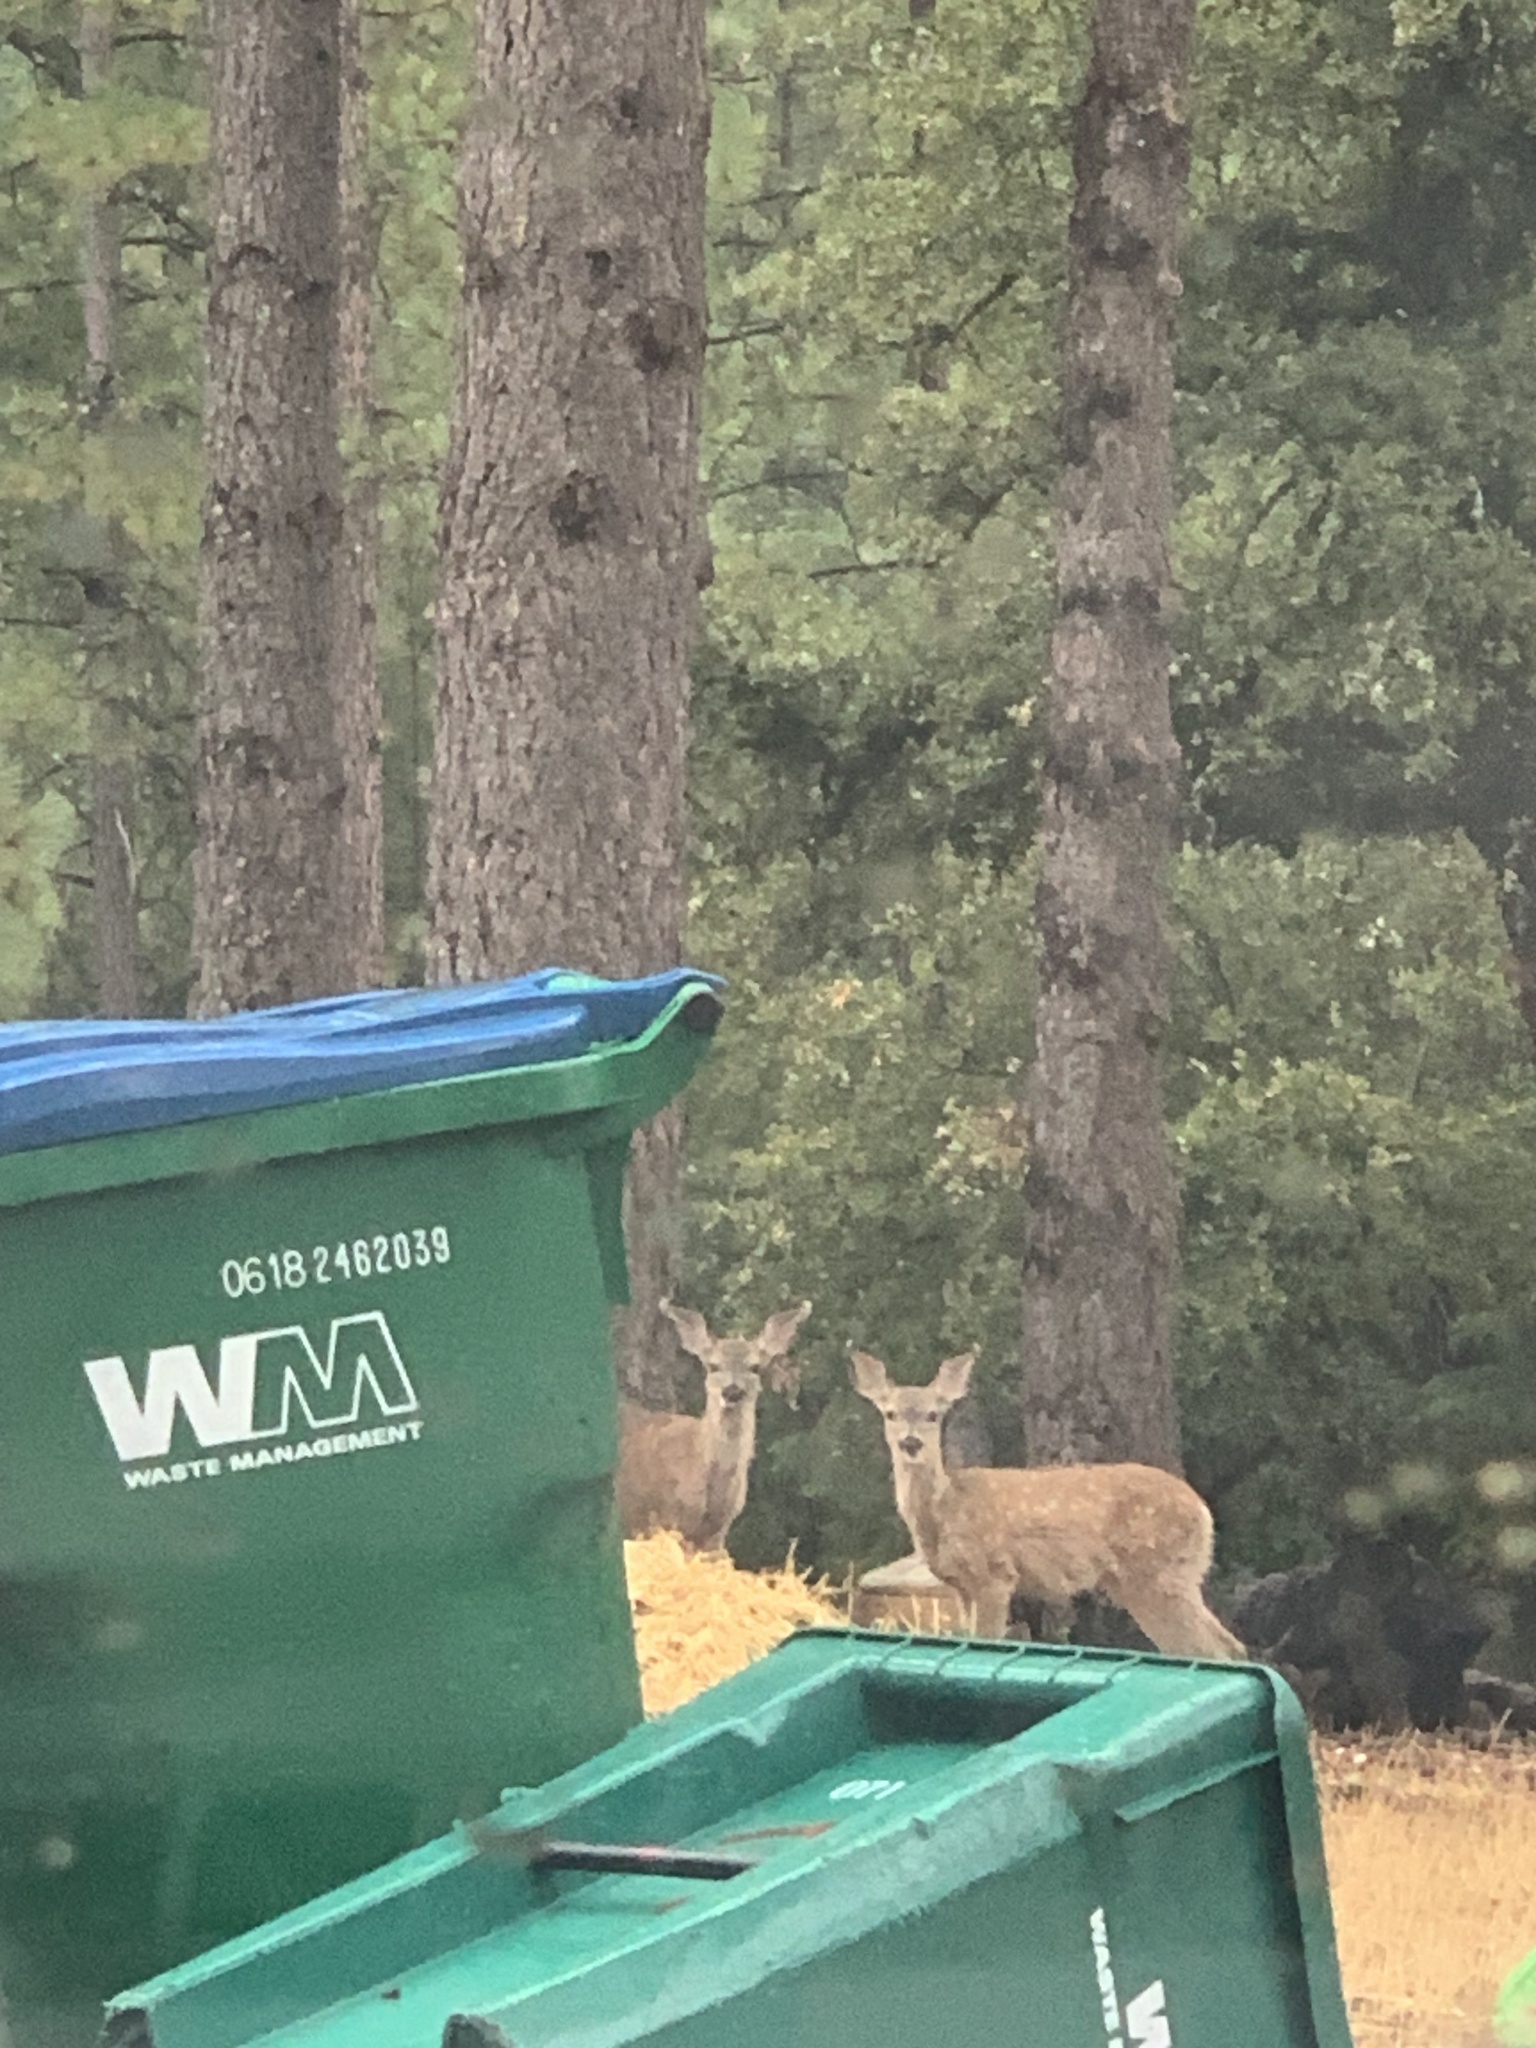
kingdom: Animalia
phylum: Chordata
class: Mammalia
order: Artiodactyla
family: Cervidae
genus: Odocoileus
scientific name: Odocoileus hemionus
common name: Mule deer
